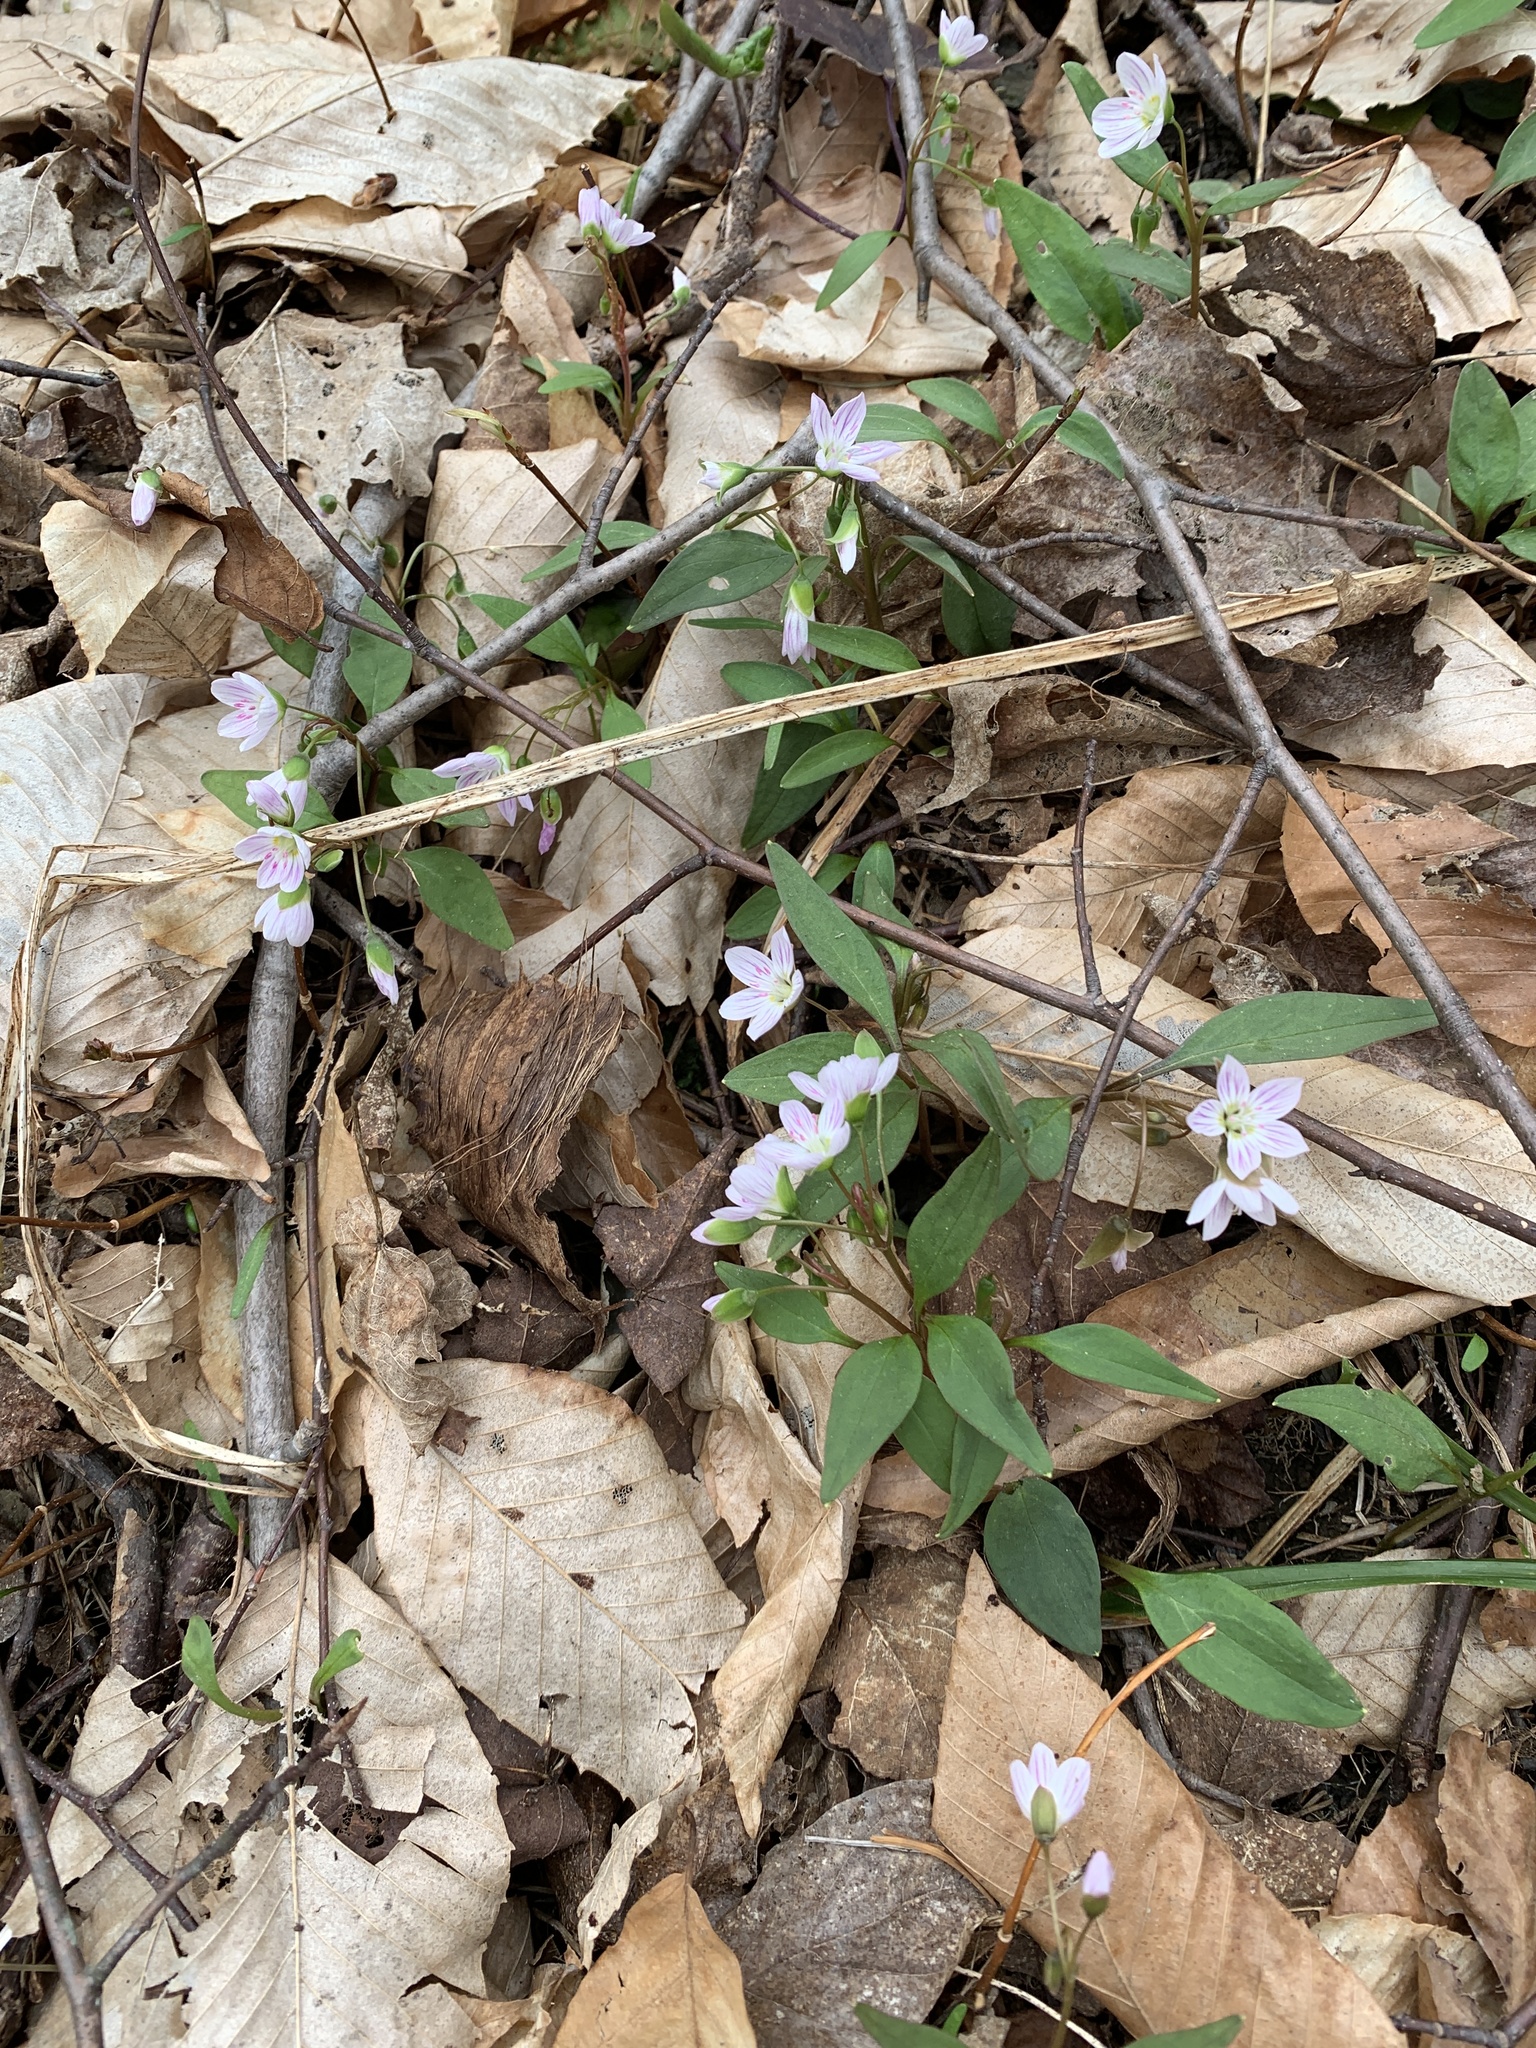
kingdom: Plantae
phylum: Tracheophyta
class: Magnoliopsida
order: Caryophyllales
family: Montiaceae
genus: Claytonia
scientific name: Claytonia caroliniana
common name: Carolina spring beauty
